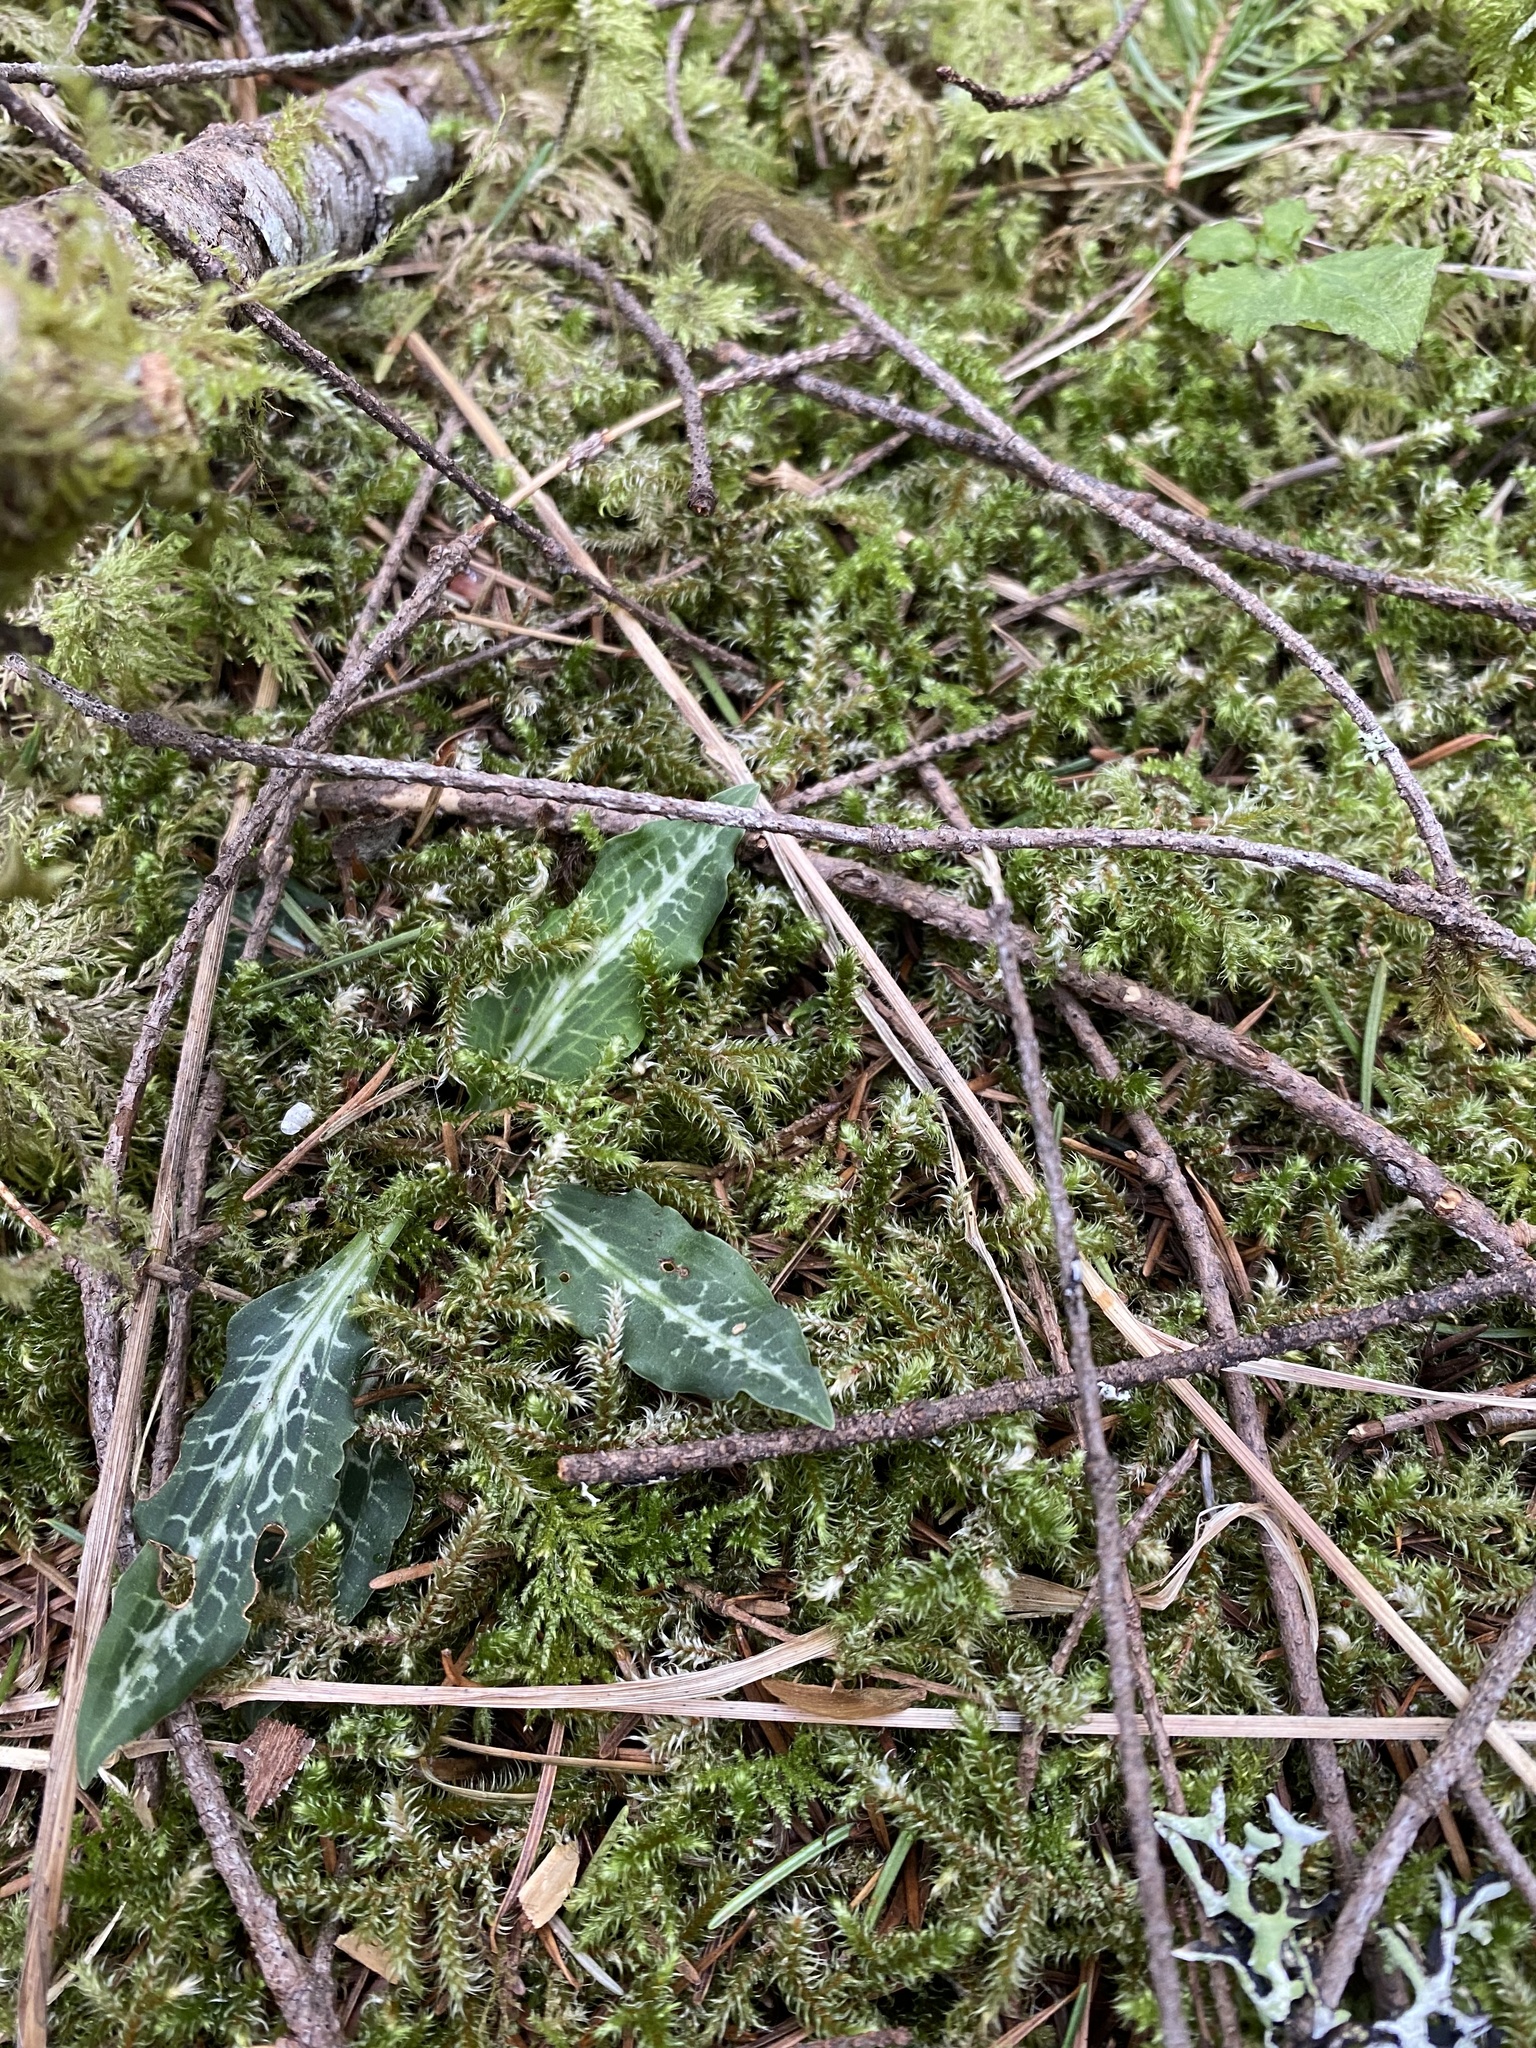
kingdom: Plantae
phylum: Tracheophyta
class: Liliopsida
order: Asparagales
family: Orchidaceae
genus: Goodyera
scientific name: Goodyera oblongifolia
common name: Giant rattlesnake-plantain
